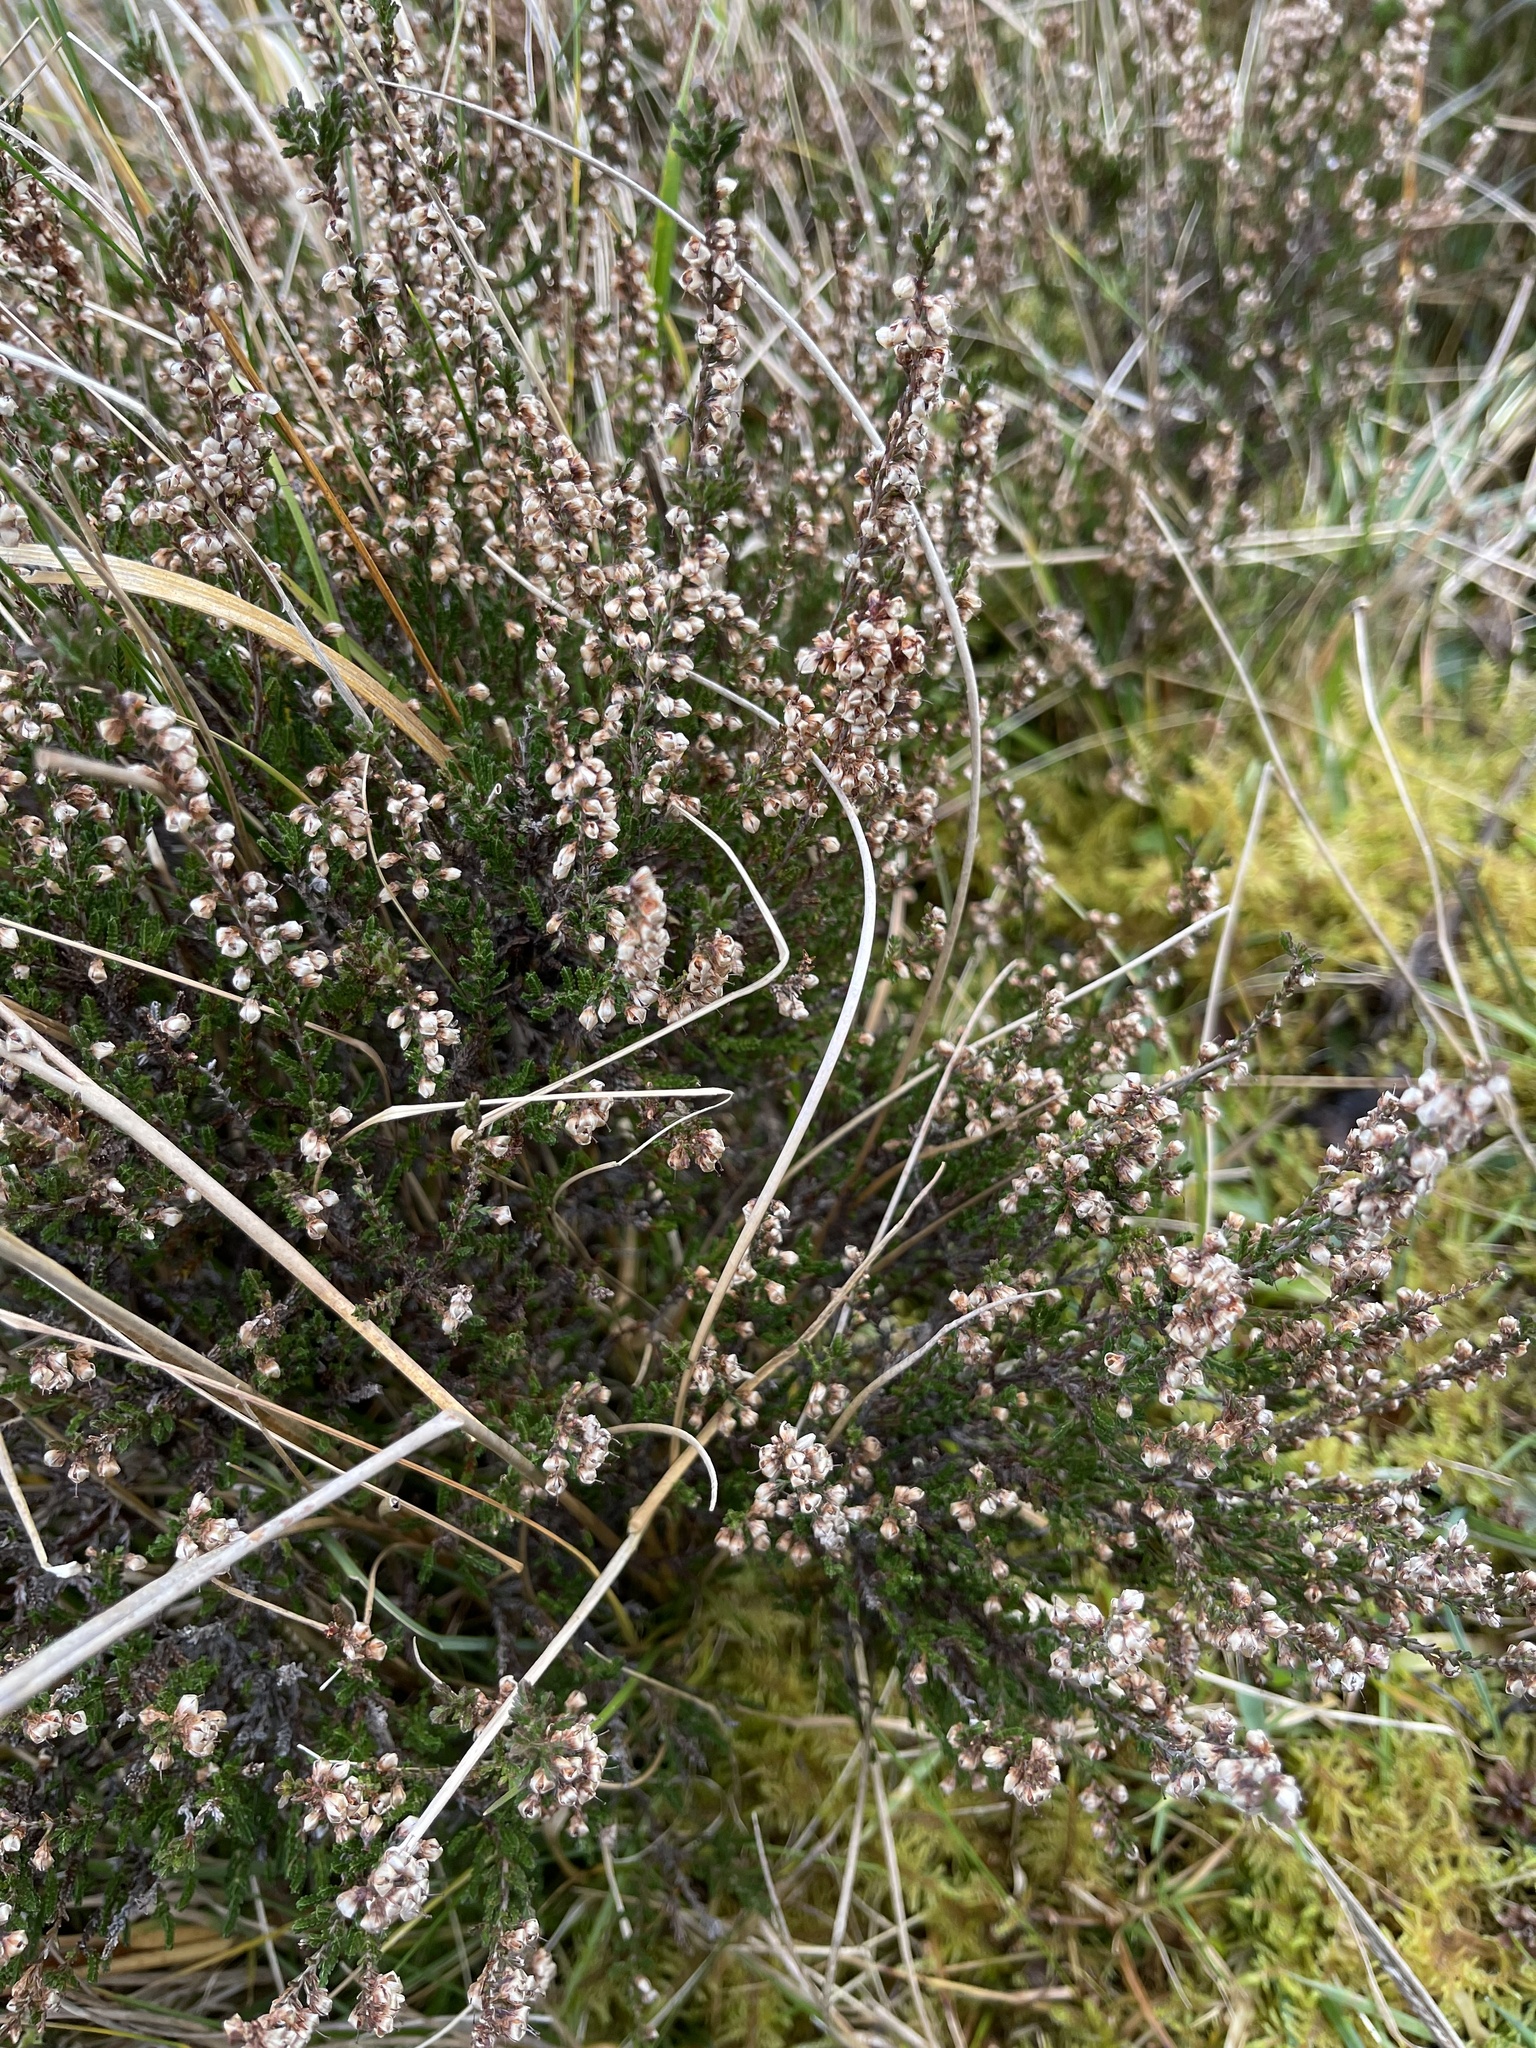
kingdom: Plantae
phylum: Tracheophyta
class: Magnoliopsida
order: Ericales
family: Ericaceae
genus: Calluna
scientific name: Calluna vulgaris
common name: Heather
